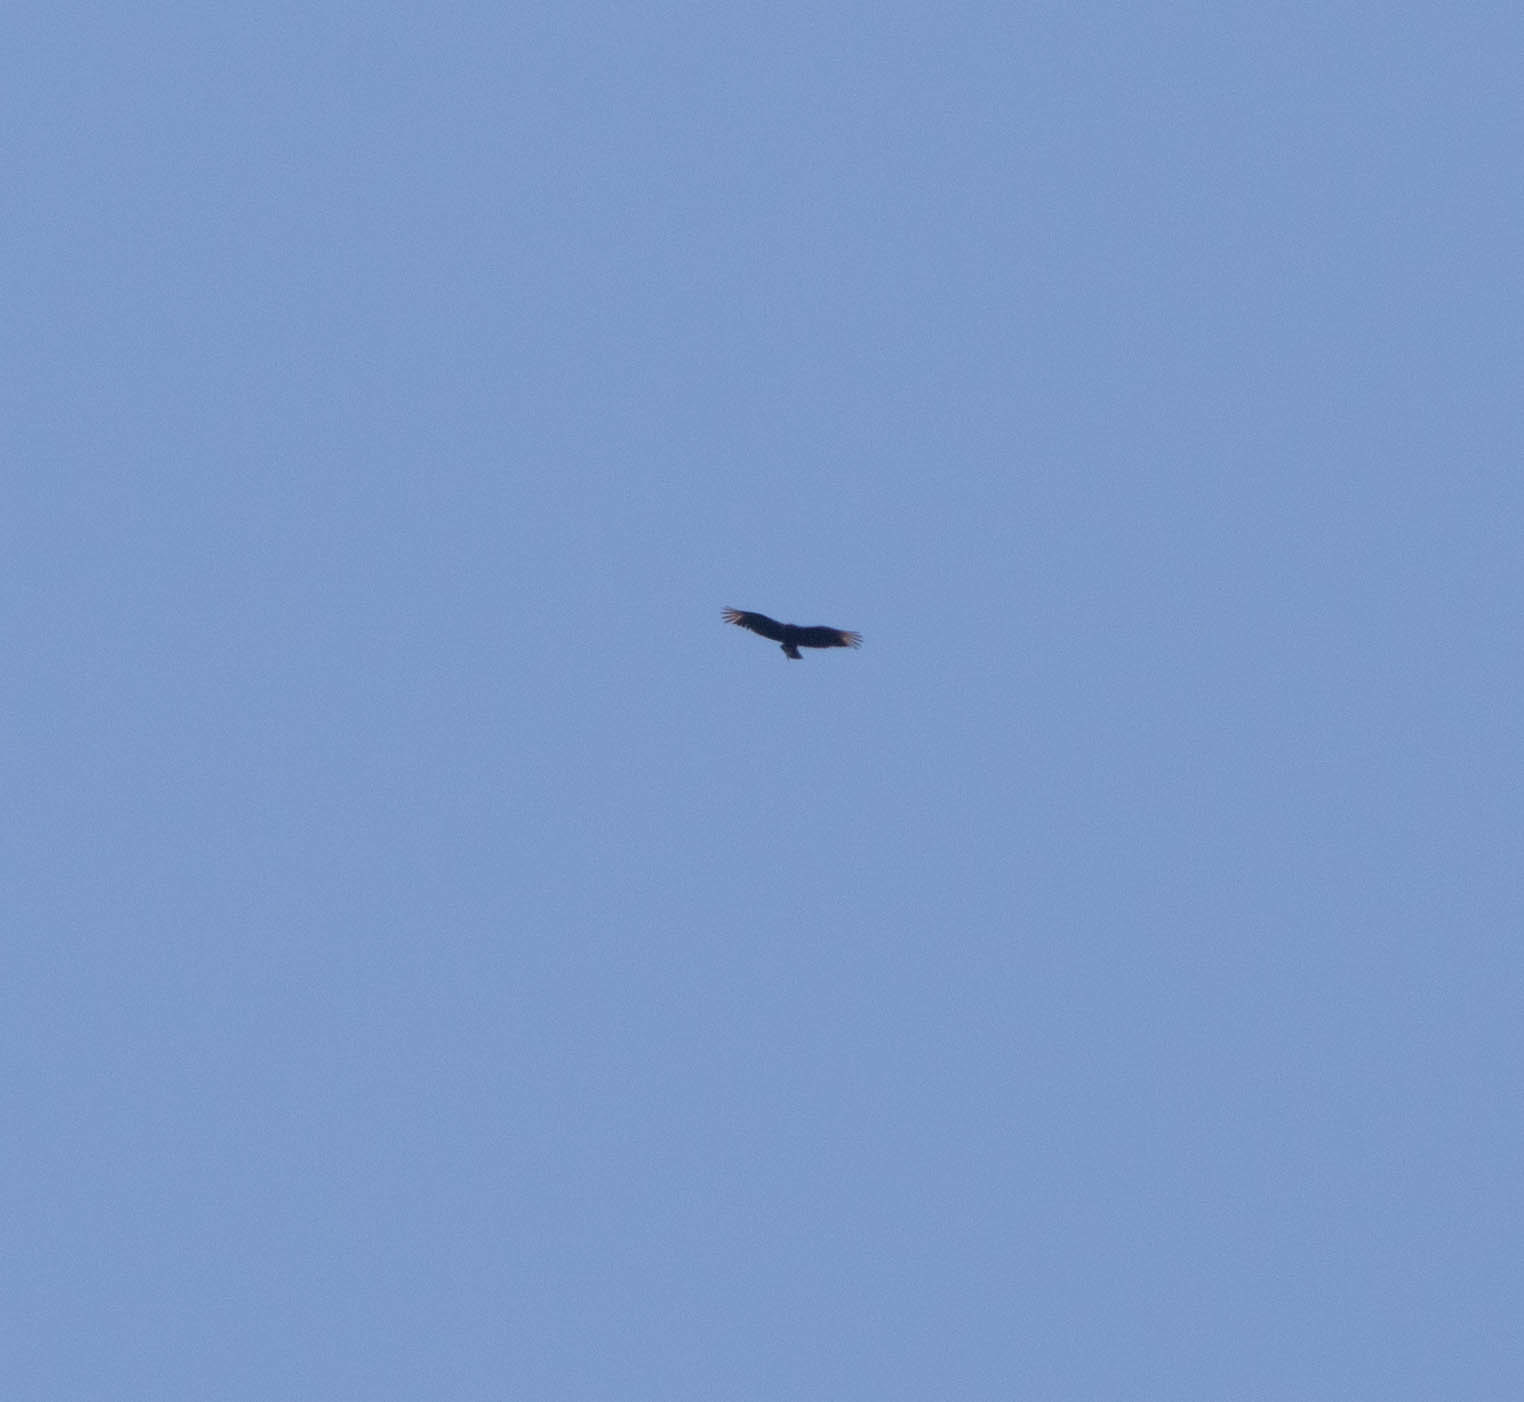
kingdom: Animalia
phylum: Chordata
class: Aves
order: Accipitriformes
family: Cathartidae
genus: Coragyps
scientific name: Coragyps atratus
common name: Black vulture
